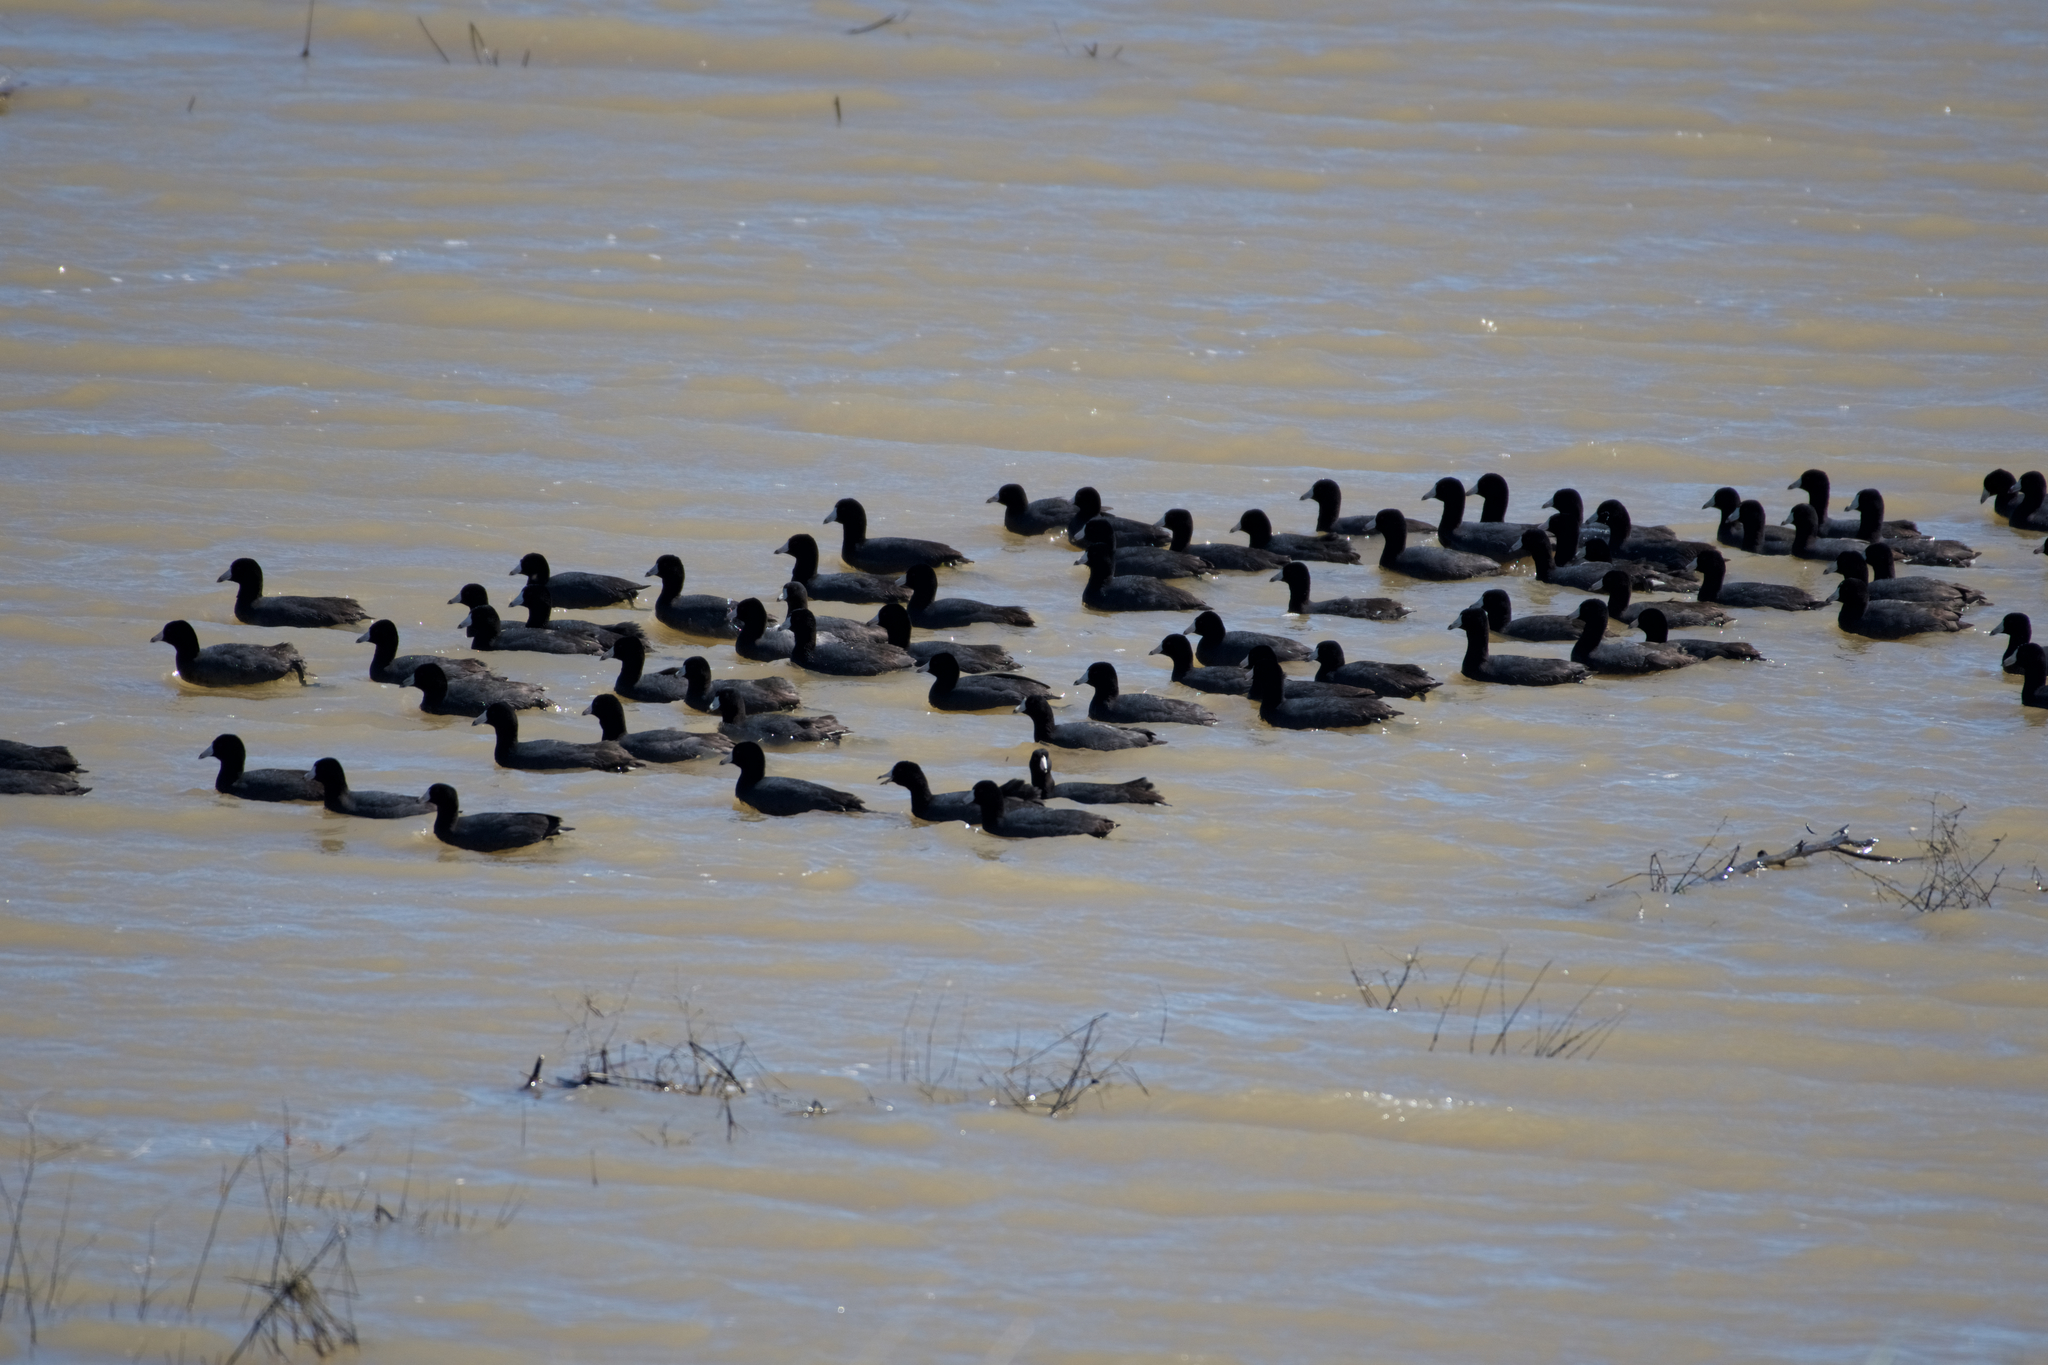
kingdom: Animalia
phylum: Chordata
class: Aves
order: Gruiformes
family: Rallidae
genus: Fulica
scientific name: Fulica americana
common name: American coot
